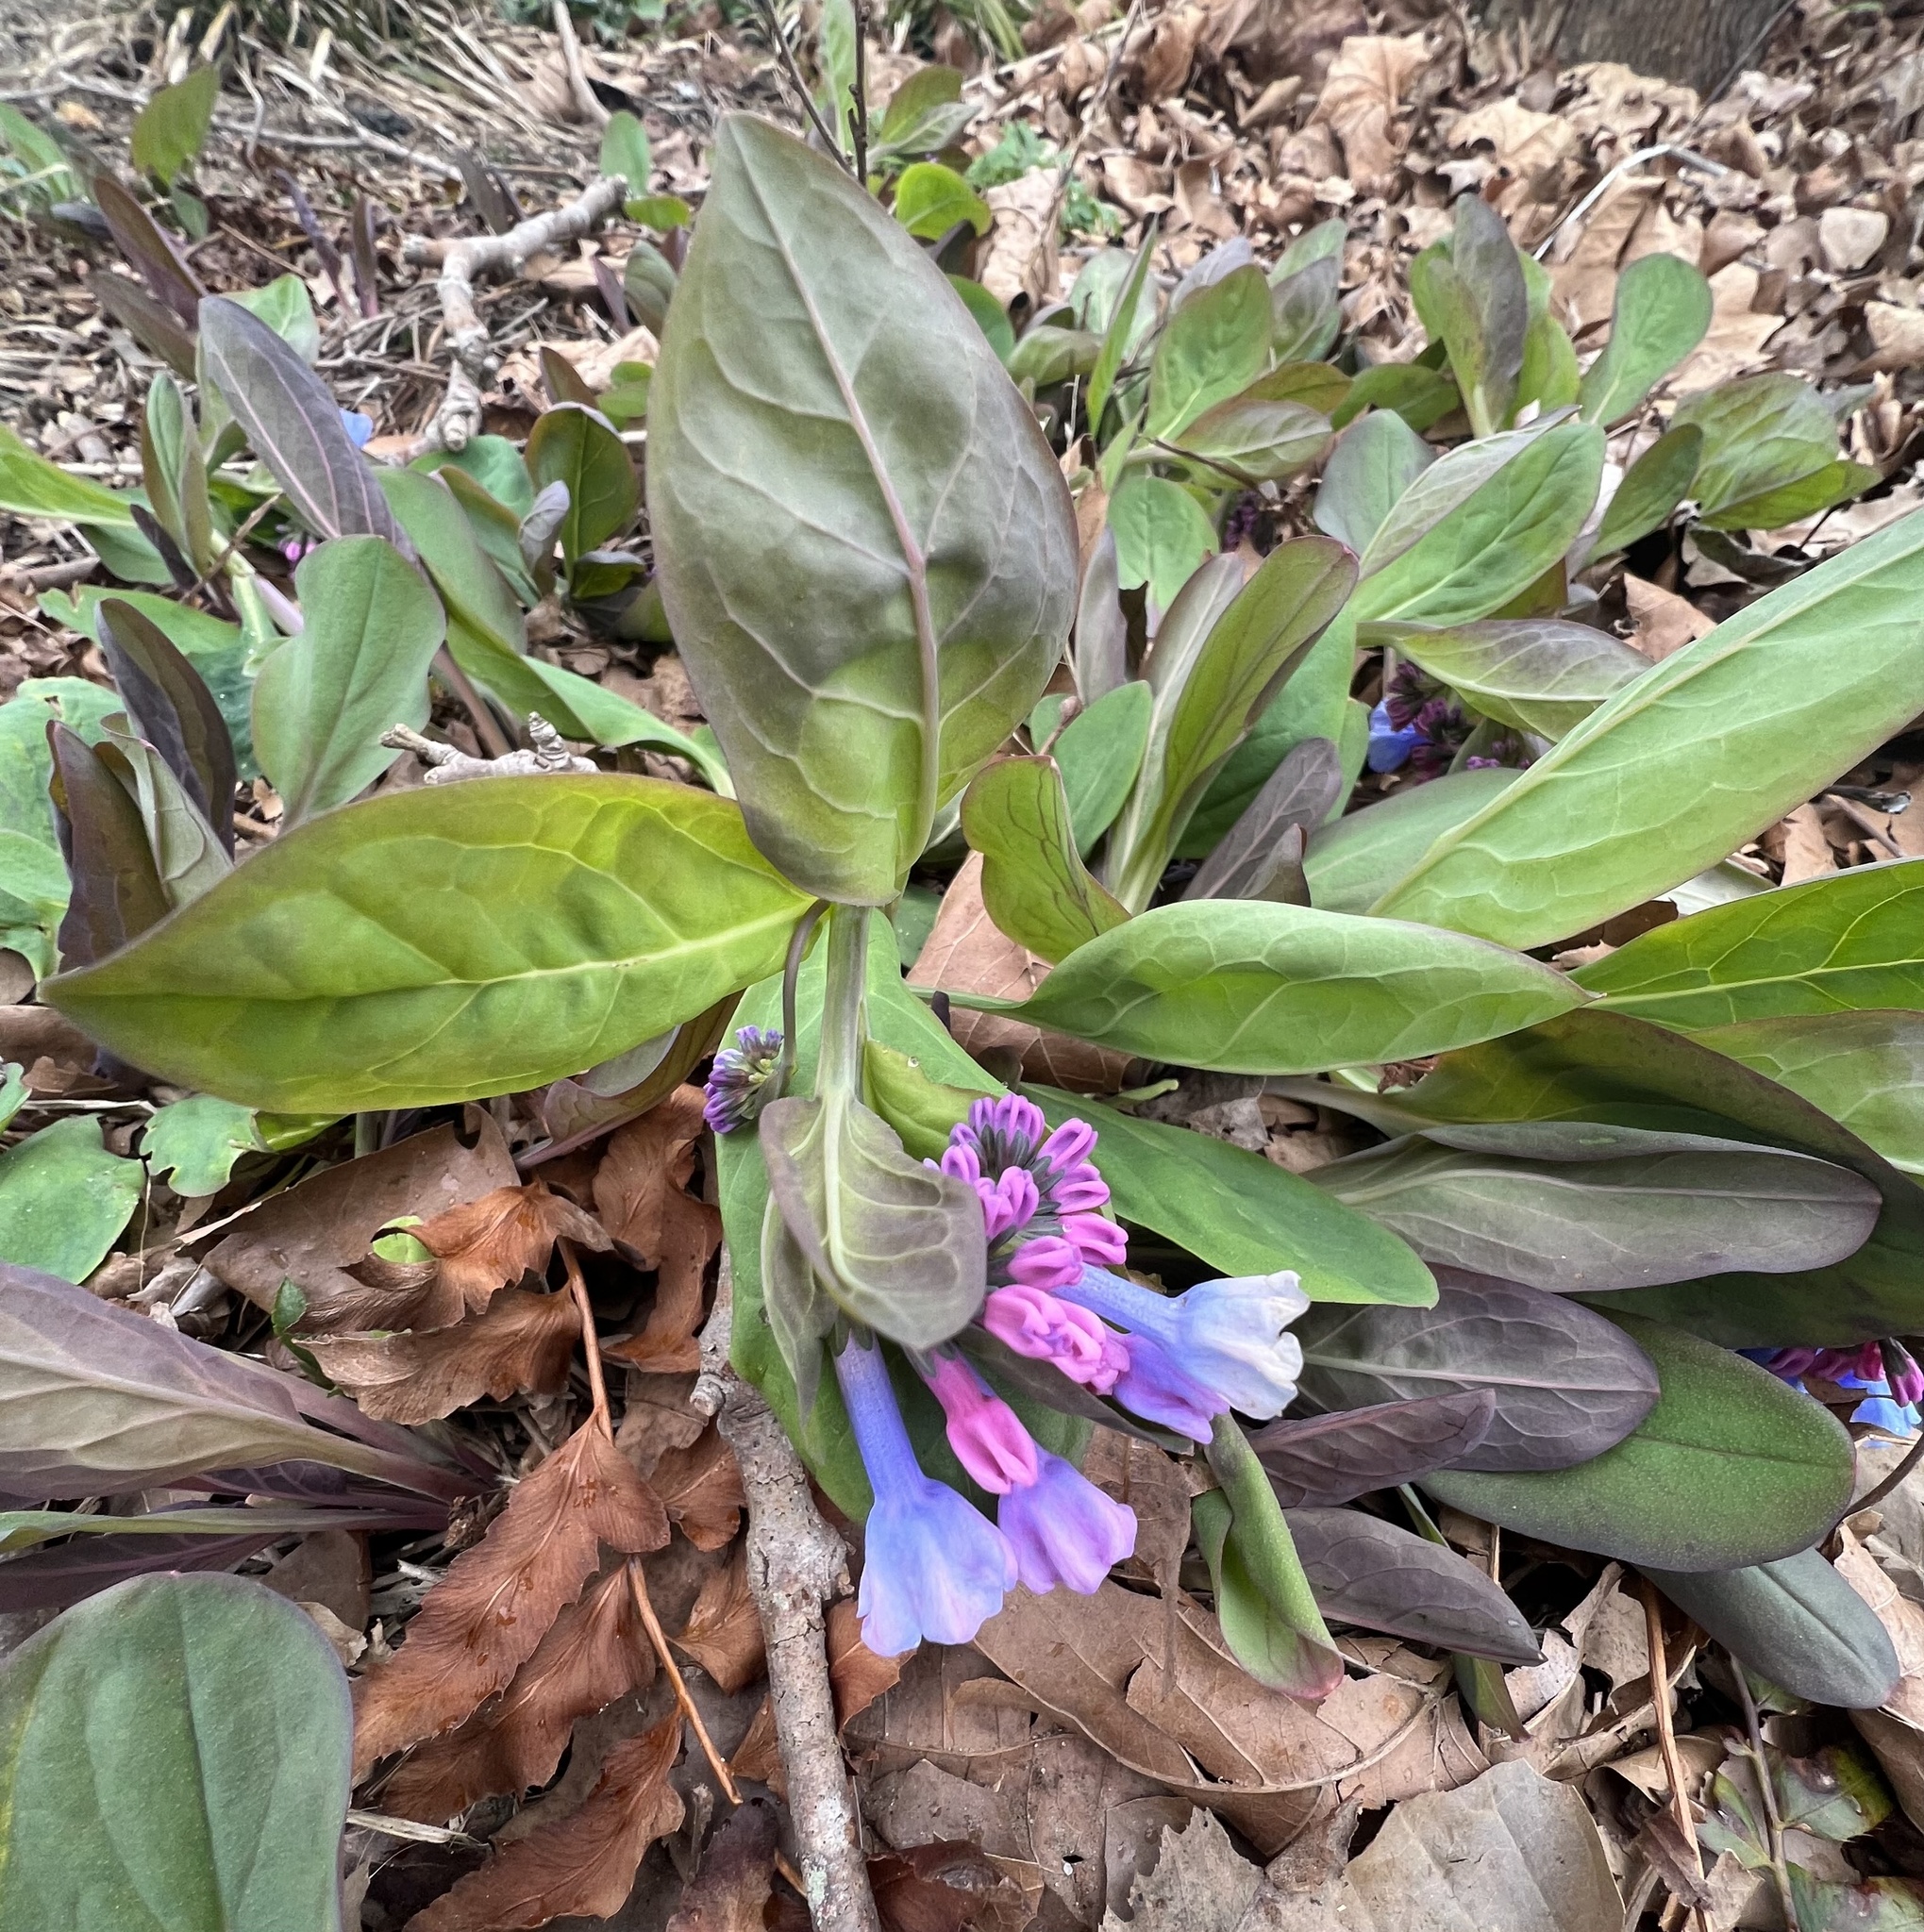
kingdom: Plantae
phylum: Tracheophyta
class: Magnoliopsida
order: Boraginales
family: Boraginaceae
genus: Mertensia
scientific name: Mertensia virginica
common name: Virginia bluebells
